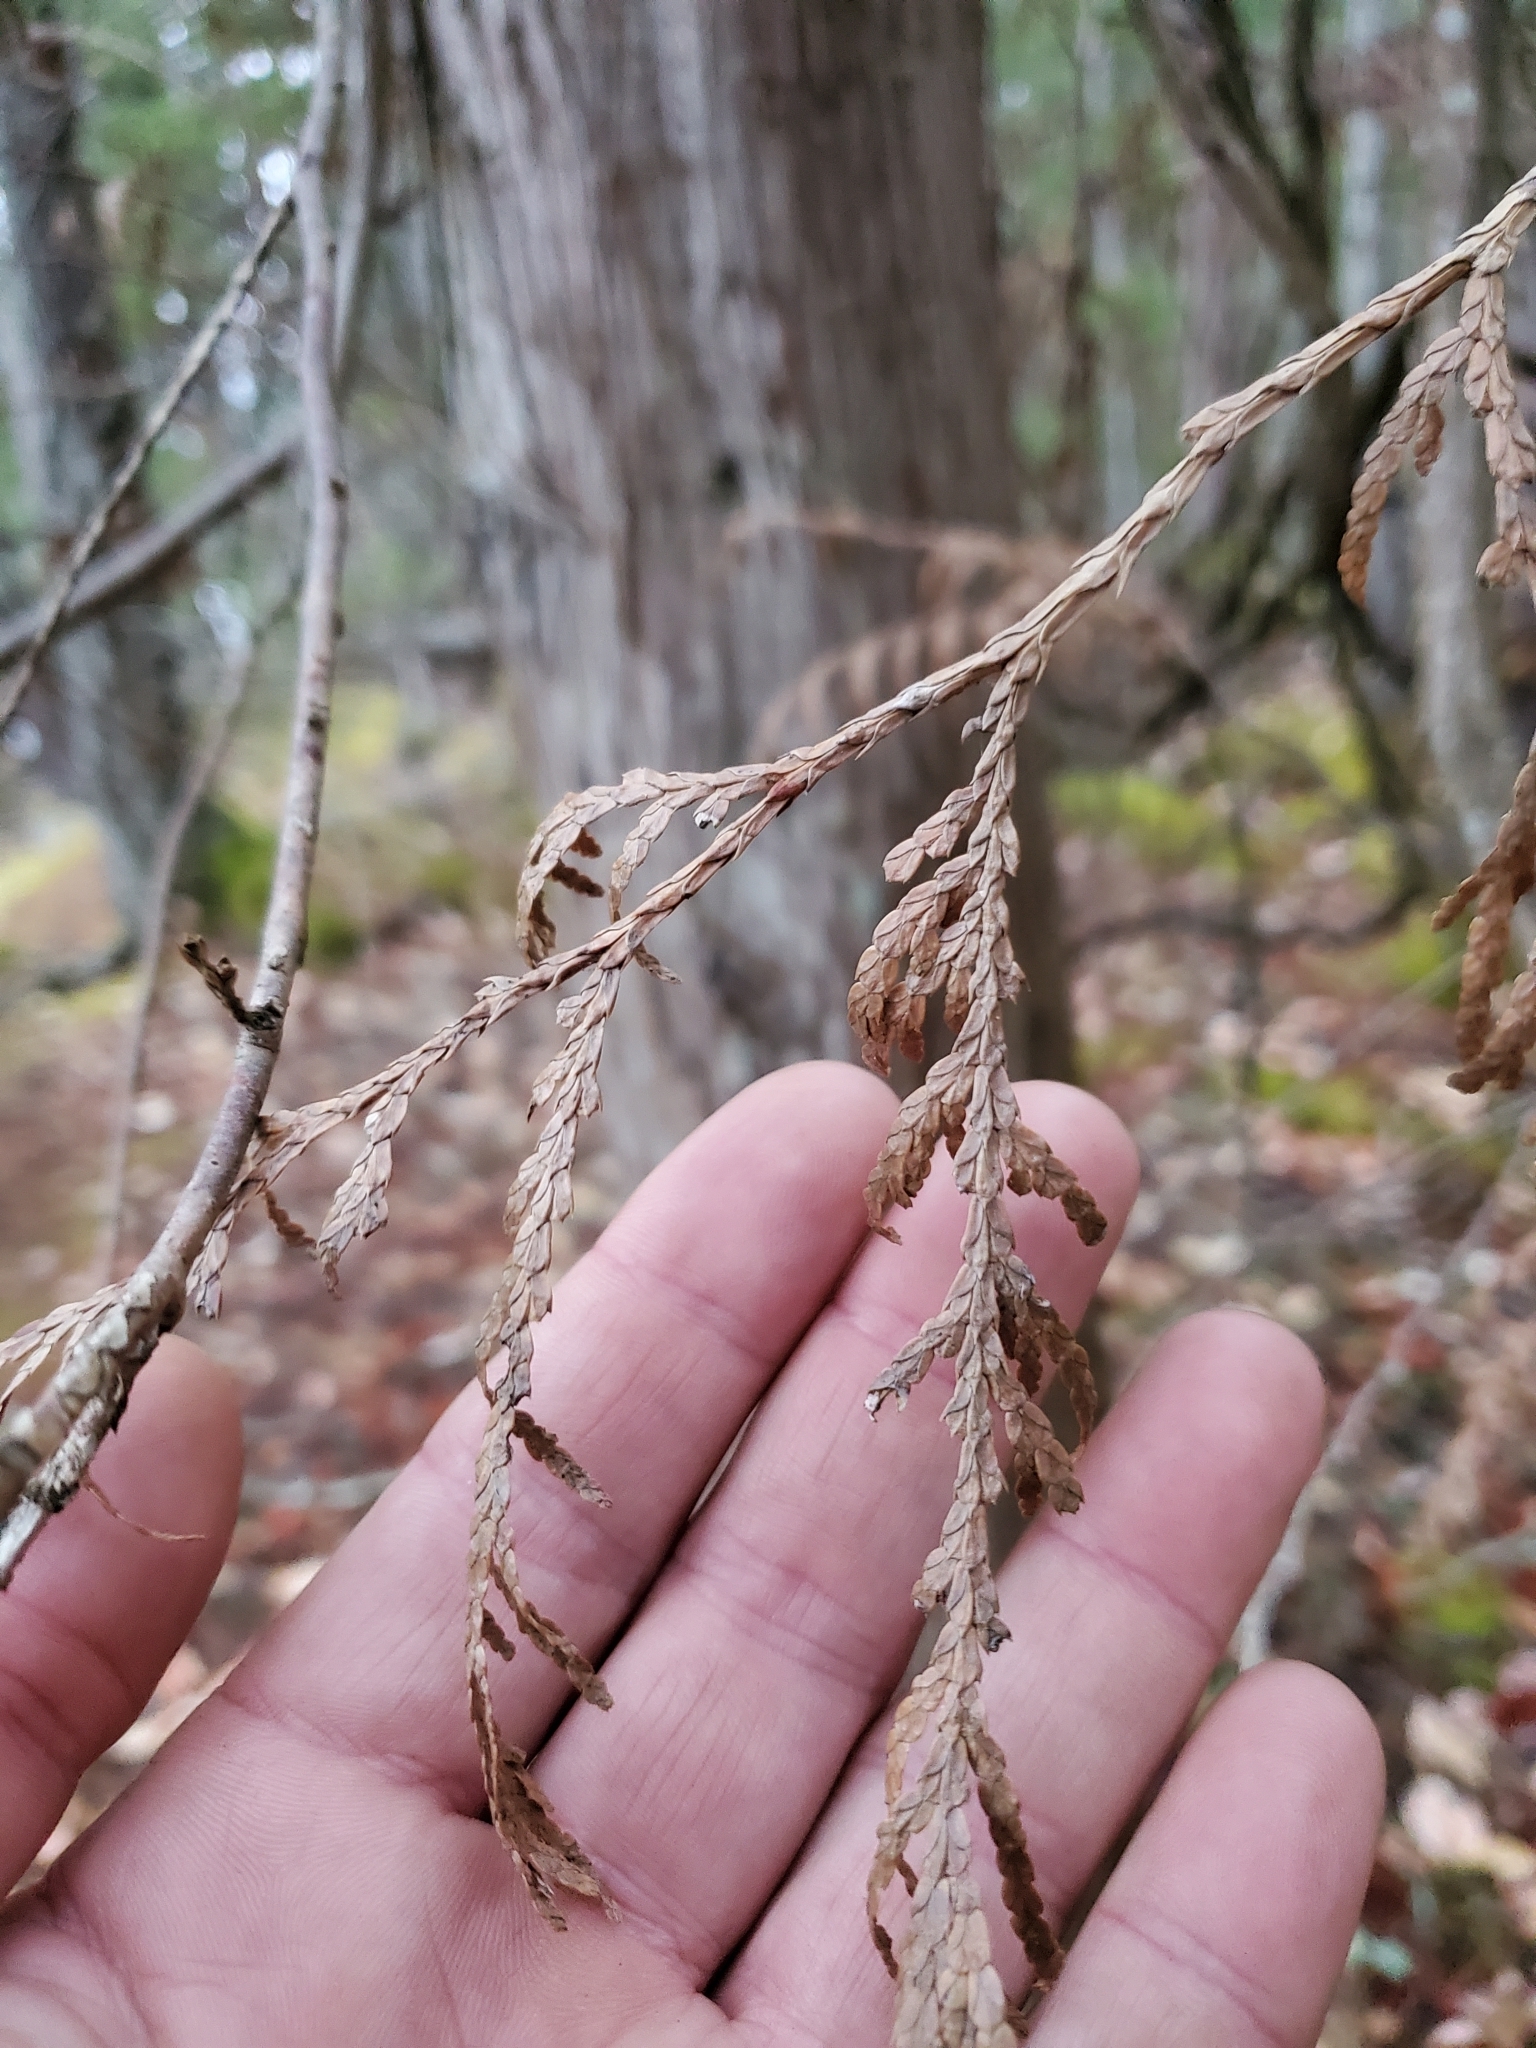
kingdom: Plantae
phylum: Tracheophyta
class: Pinopsida
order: Pinales
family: Cupressaceae
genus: Thuja
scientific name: Thuja plicata
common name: Western red-cedar
